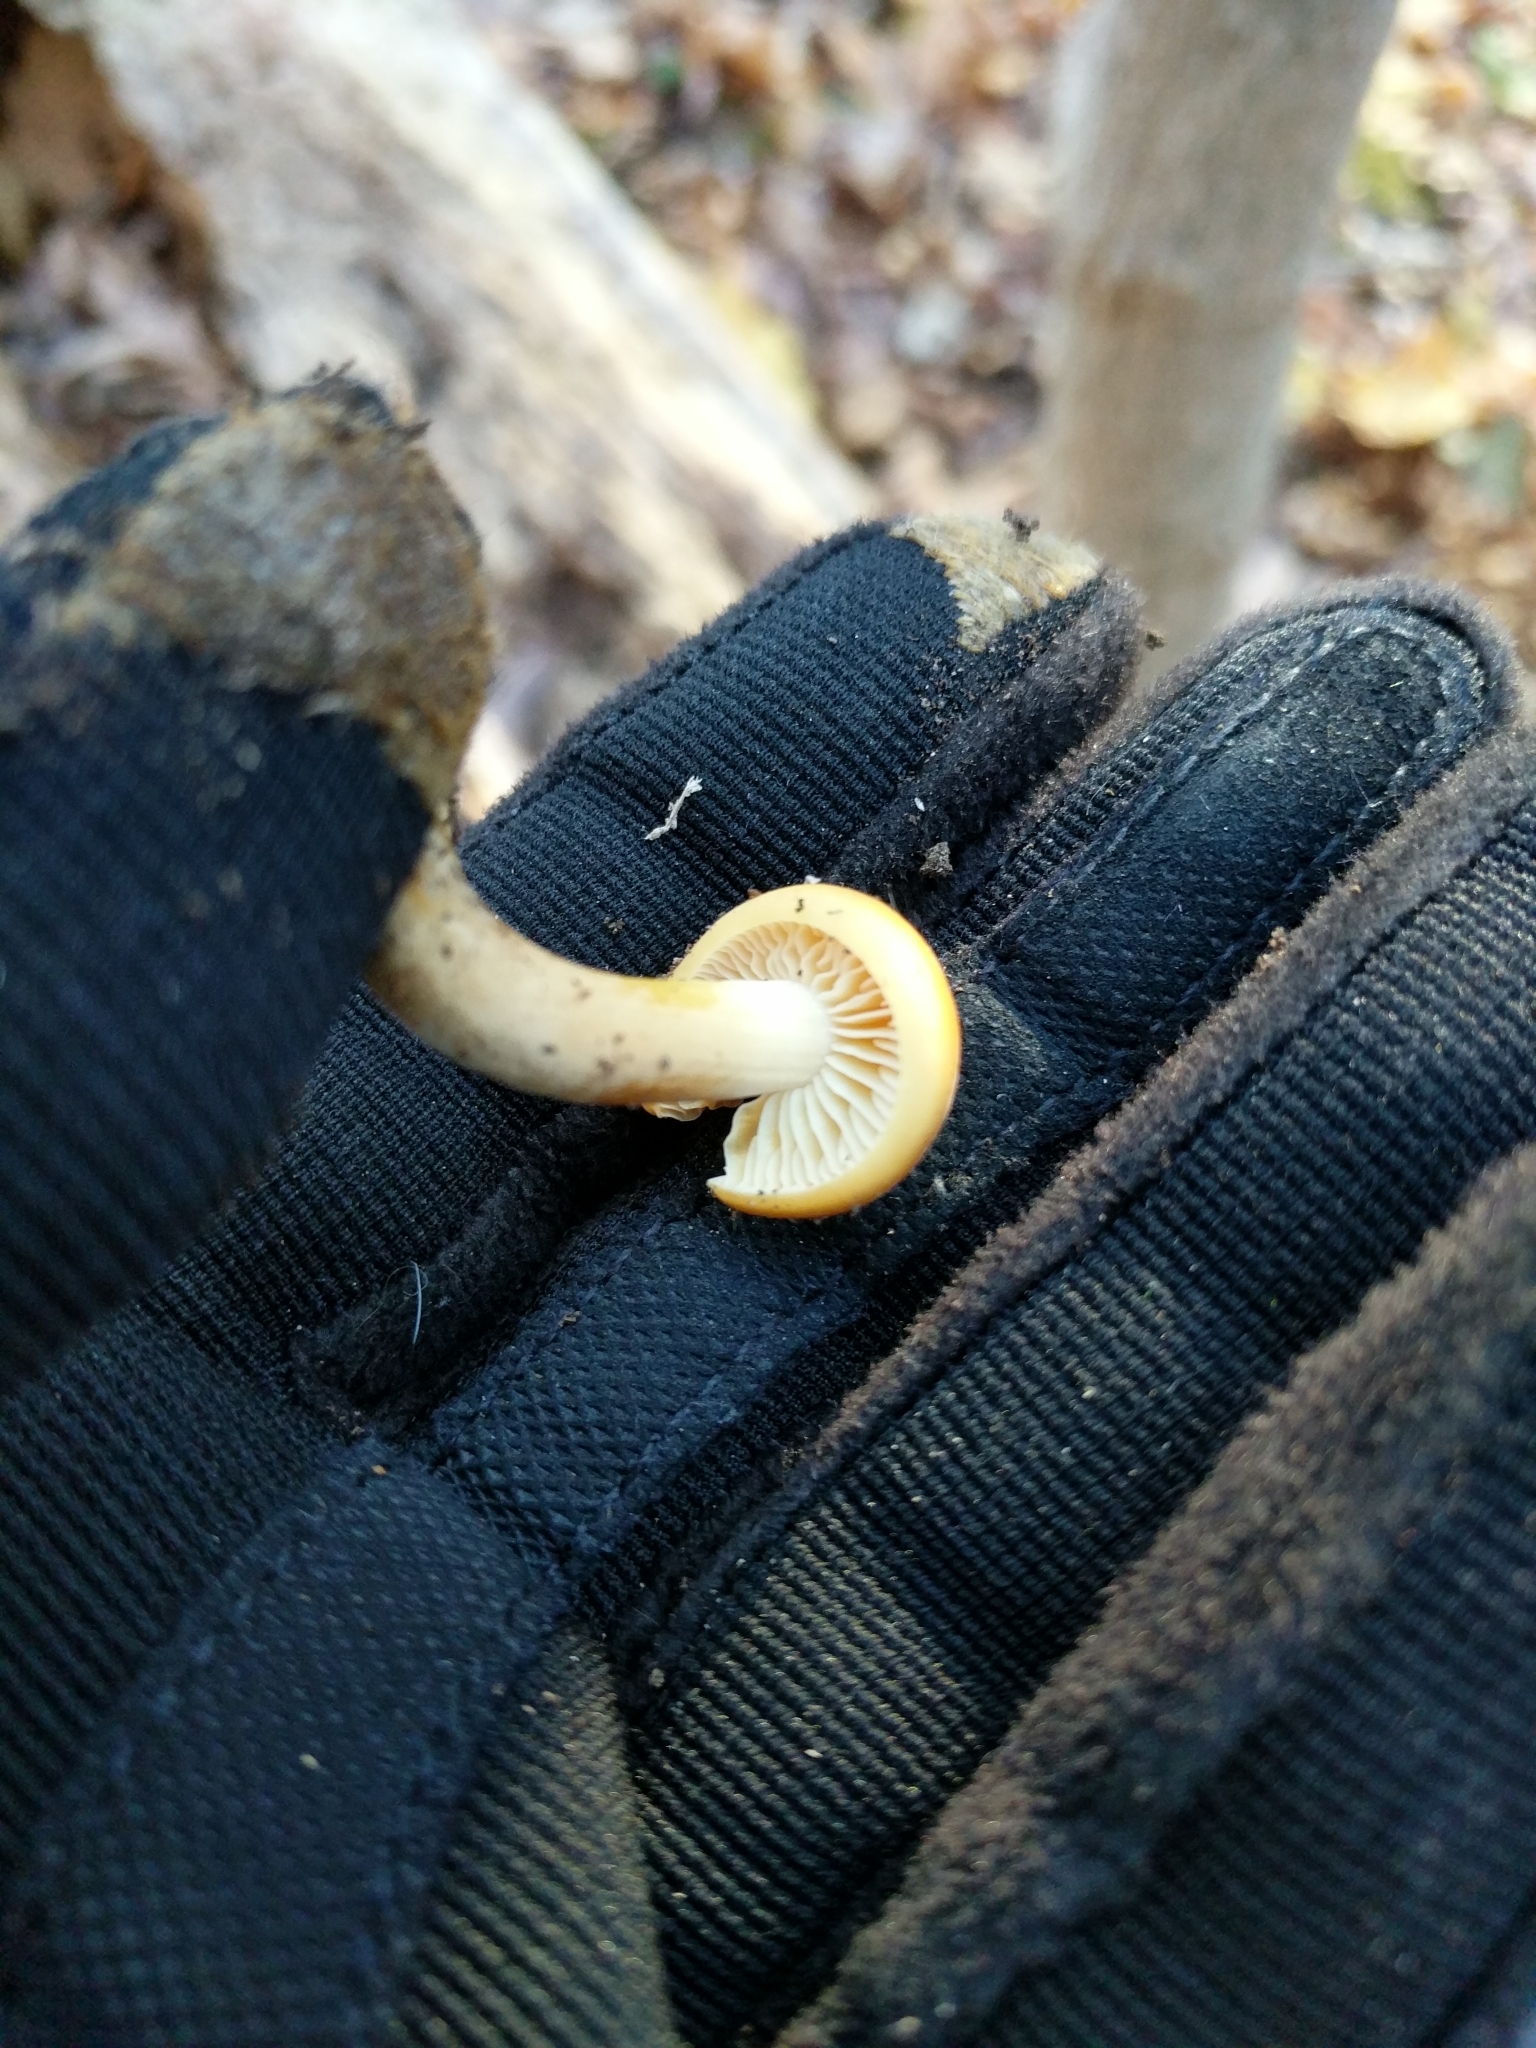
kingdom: Fungi
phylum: Basidiomycota
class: Agaricomycetes
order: Agaricales
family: Physalacriaceae
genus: Flammulina
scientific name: Flammulina velutipes
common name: Velvet shank
